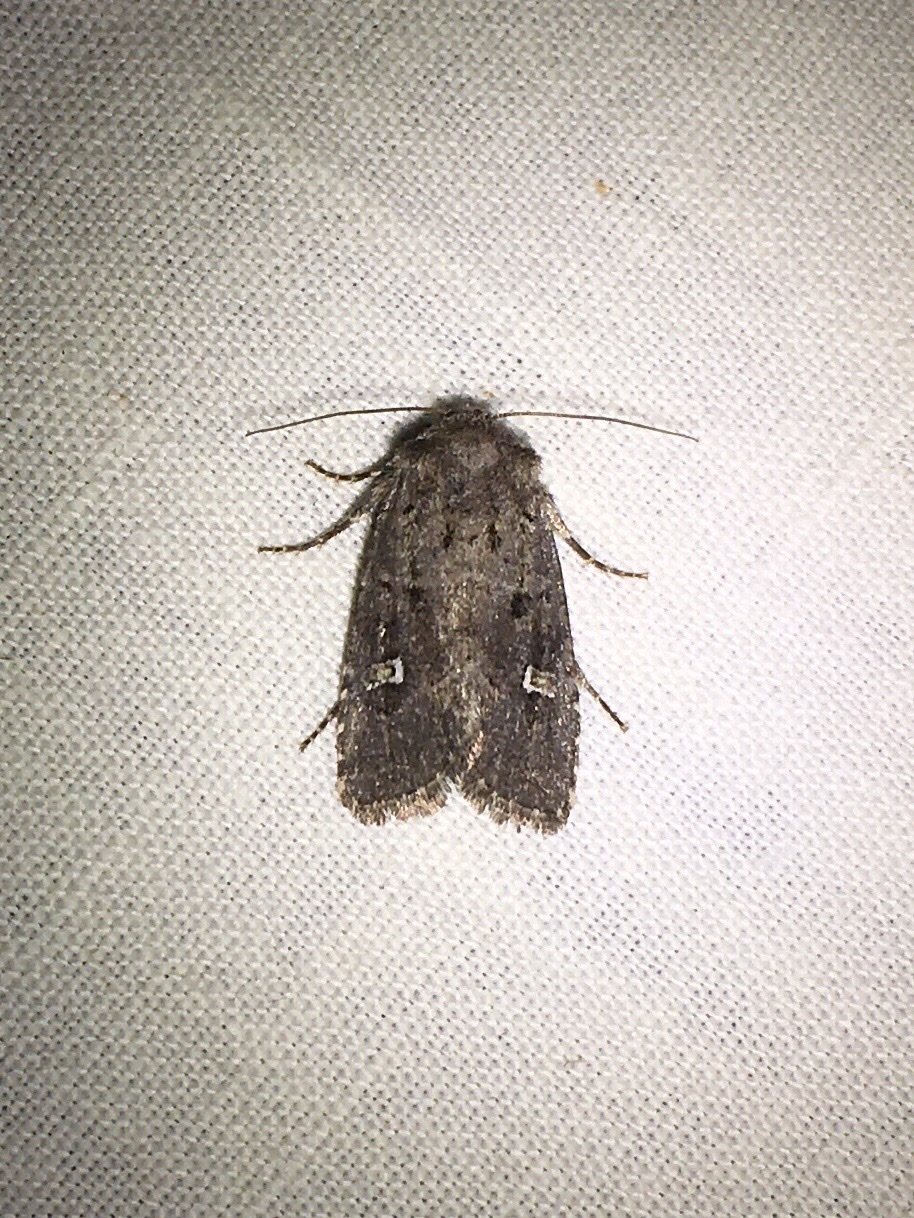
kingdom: Animalia
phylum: Arthropoda
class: Insecta
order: Lepidoptera
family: Noctuidae
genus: Lacinipolia
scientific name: Lacinipolia renigera
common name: Kidney-spotted minor
